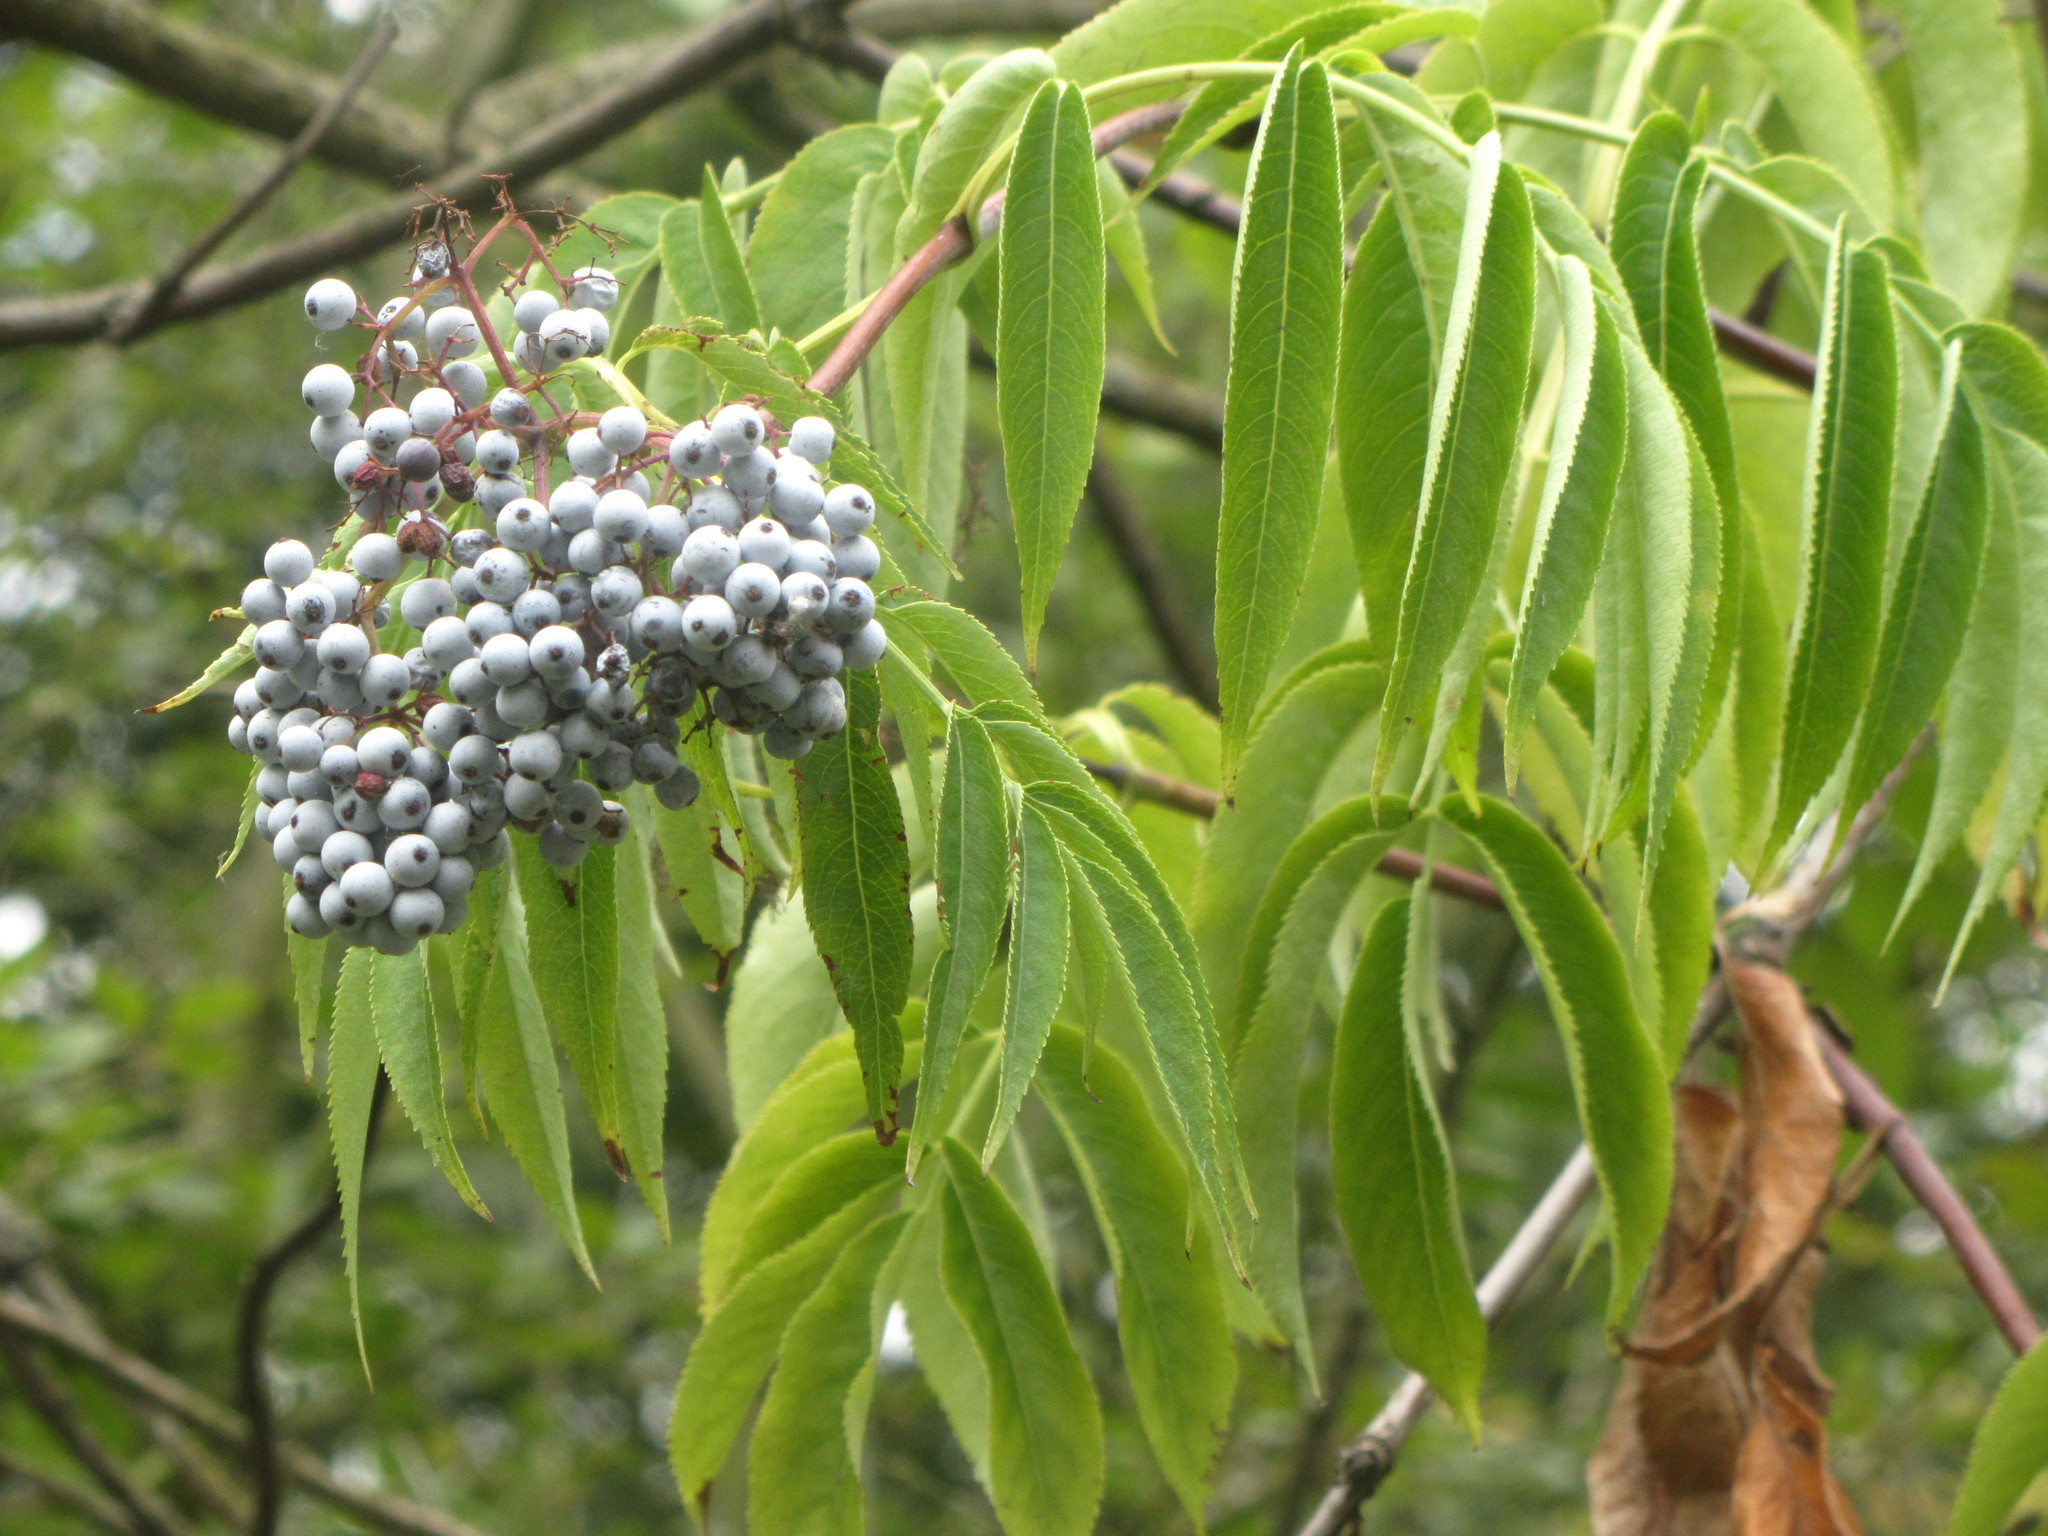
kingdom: Plantae
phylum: Tracheophyta
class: Magnoliopsida
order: Dipsacales
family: Viburnaceae
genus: Sambucus
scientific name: Sambucus cerulea
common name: Blue elder
